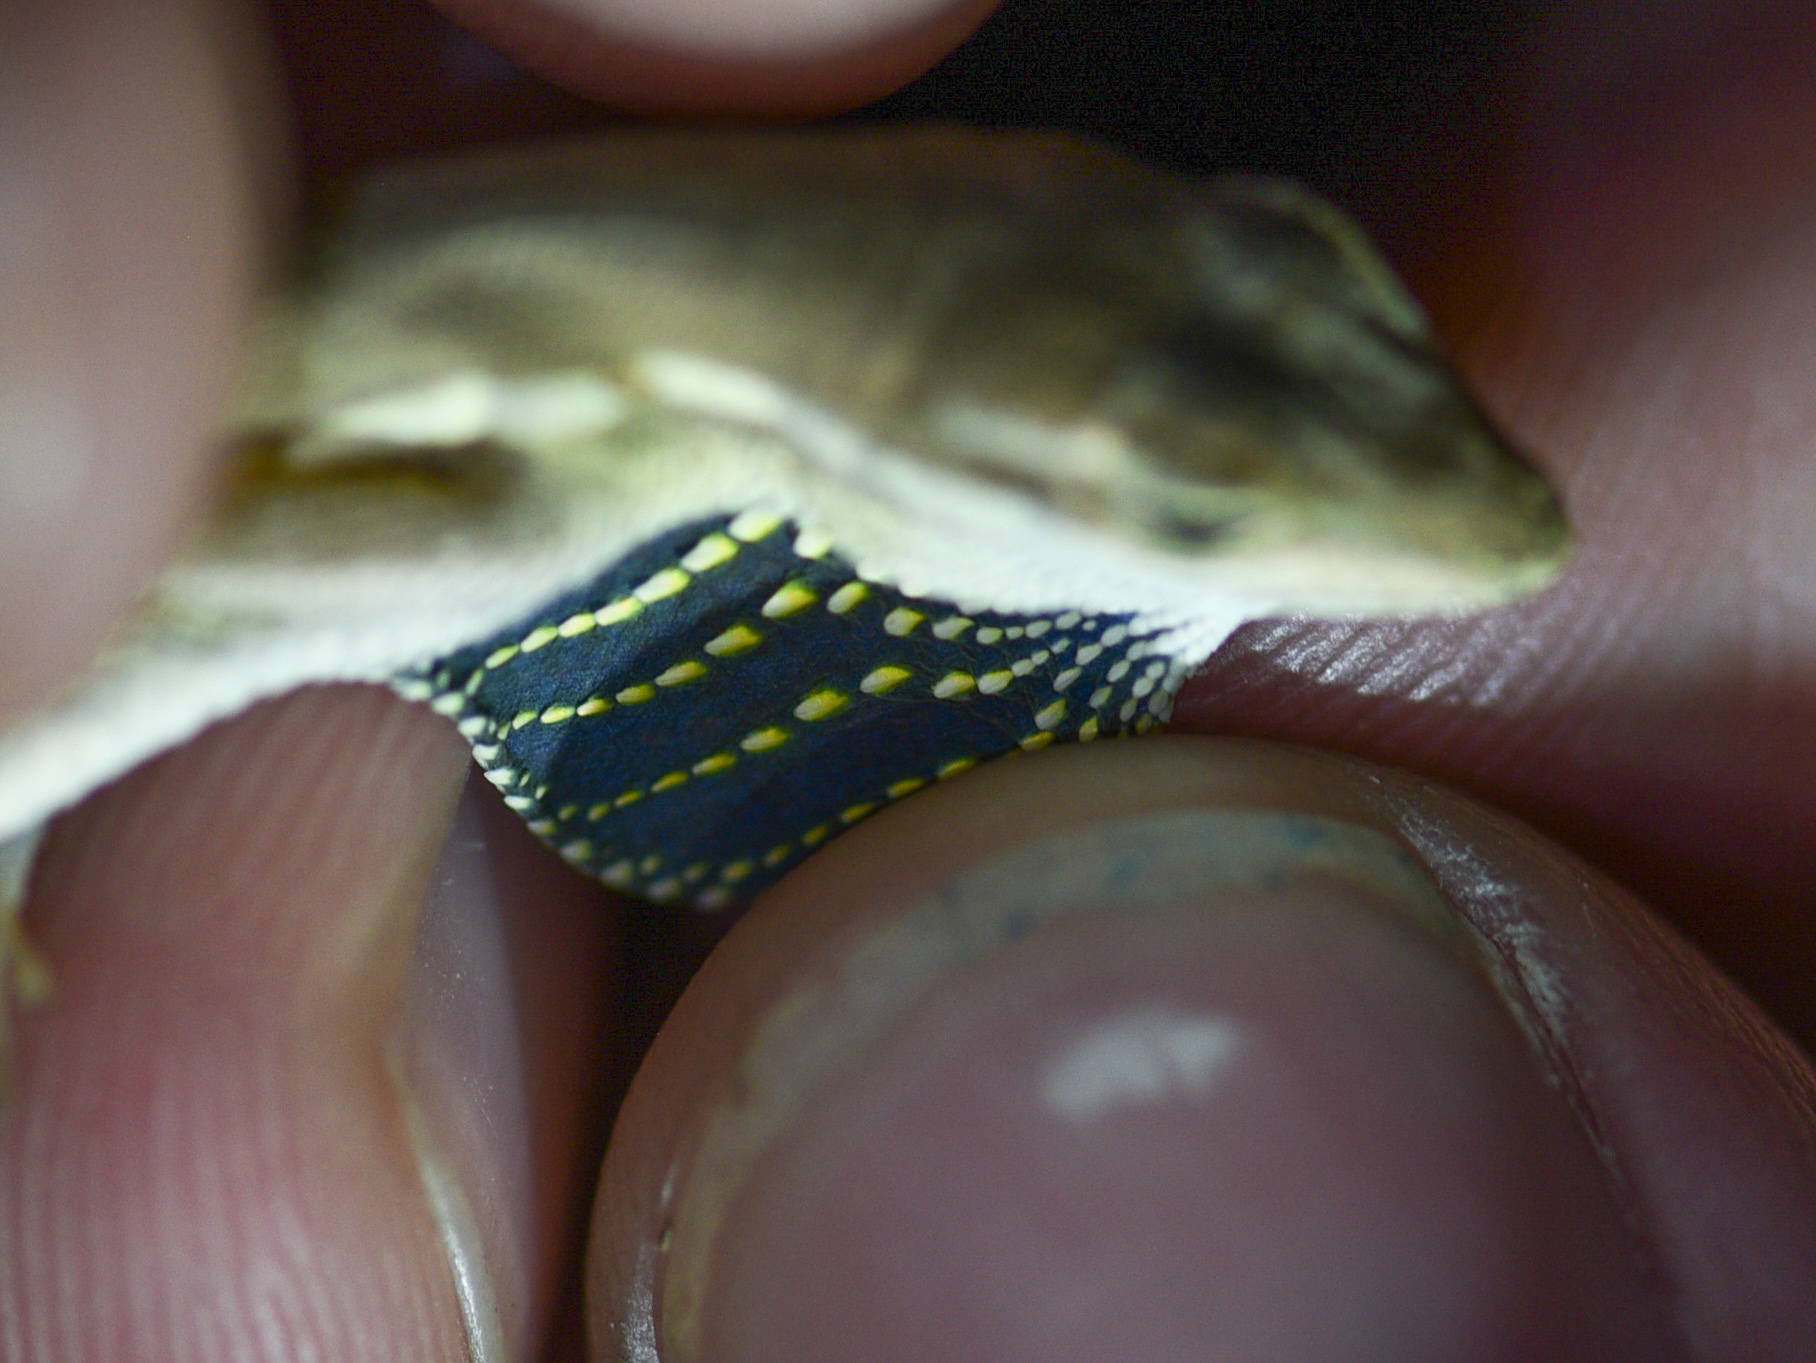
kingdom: Animalia
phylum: Chordata
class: Squamata
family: Dactyloidae
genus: Anolis
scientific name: Anolis auratus
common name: Grass anole
